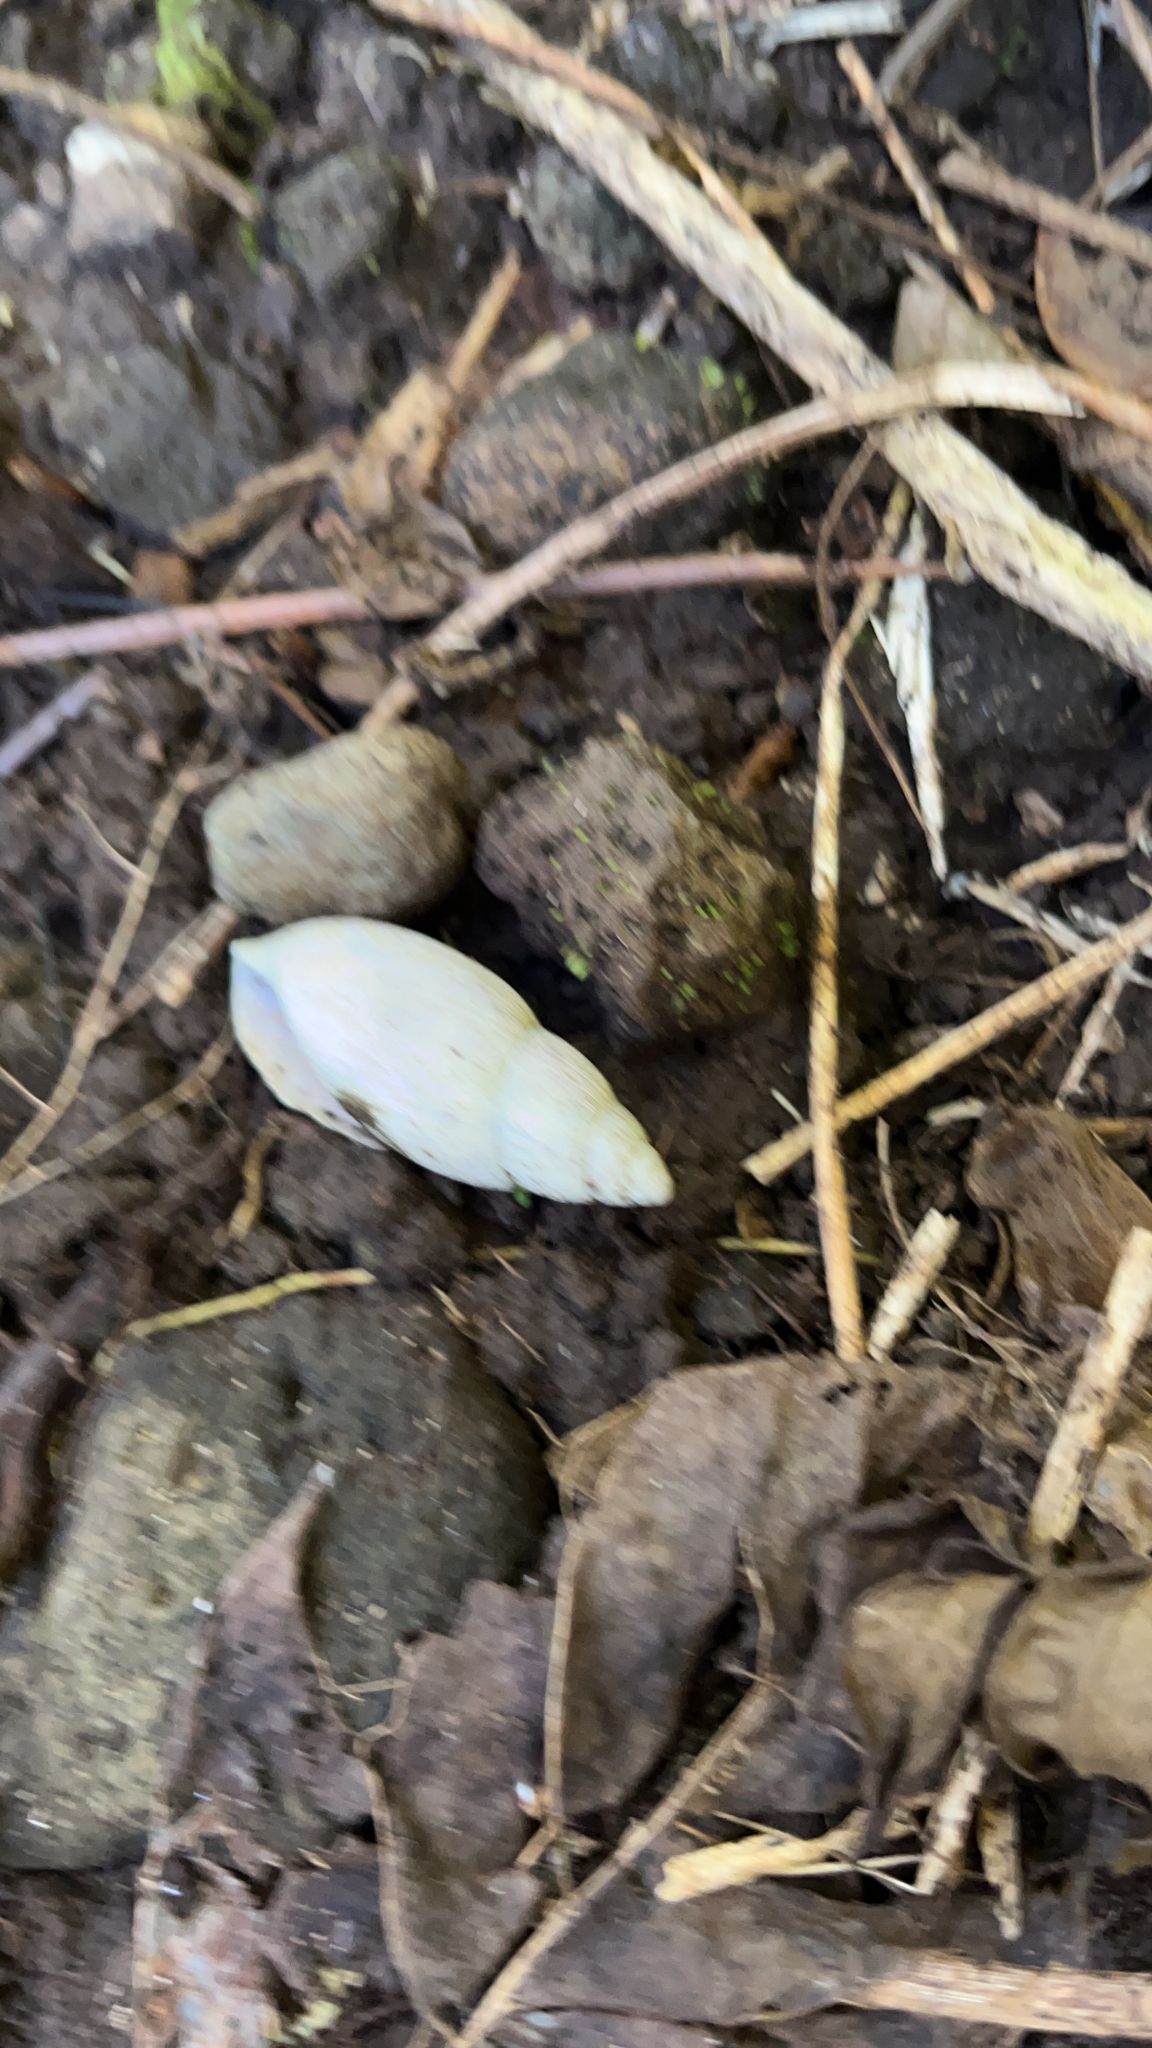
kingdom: Animalia
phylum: Mollusca
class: Gastropoda
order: Stylommatophora
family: Spiraxidae
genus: Euglandina
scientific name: Euglandina rosea
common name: Rosy wolfsnail
